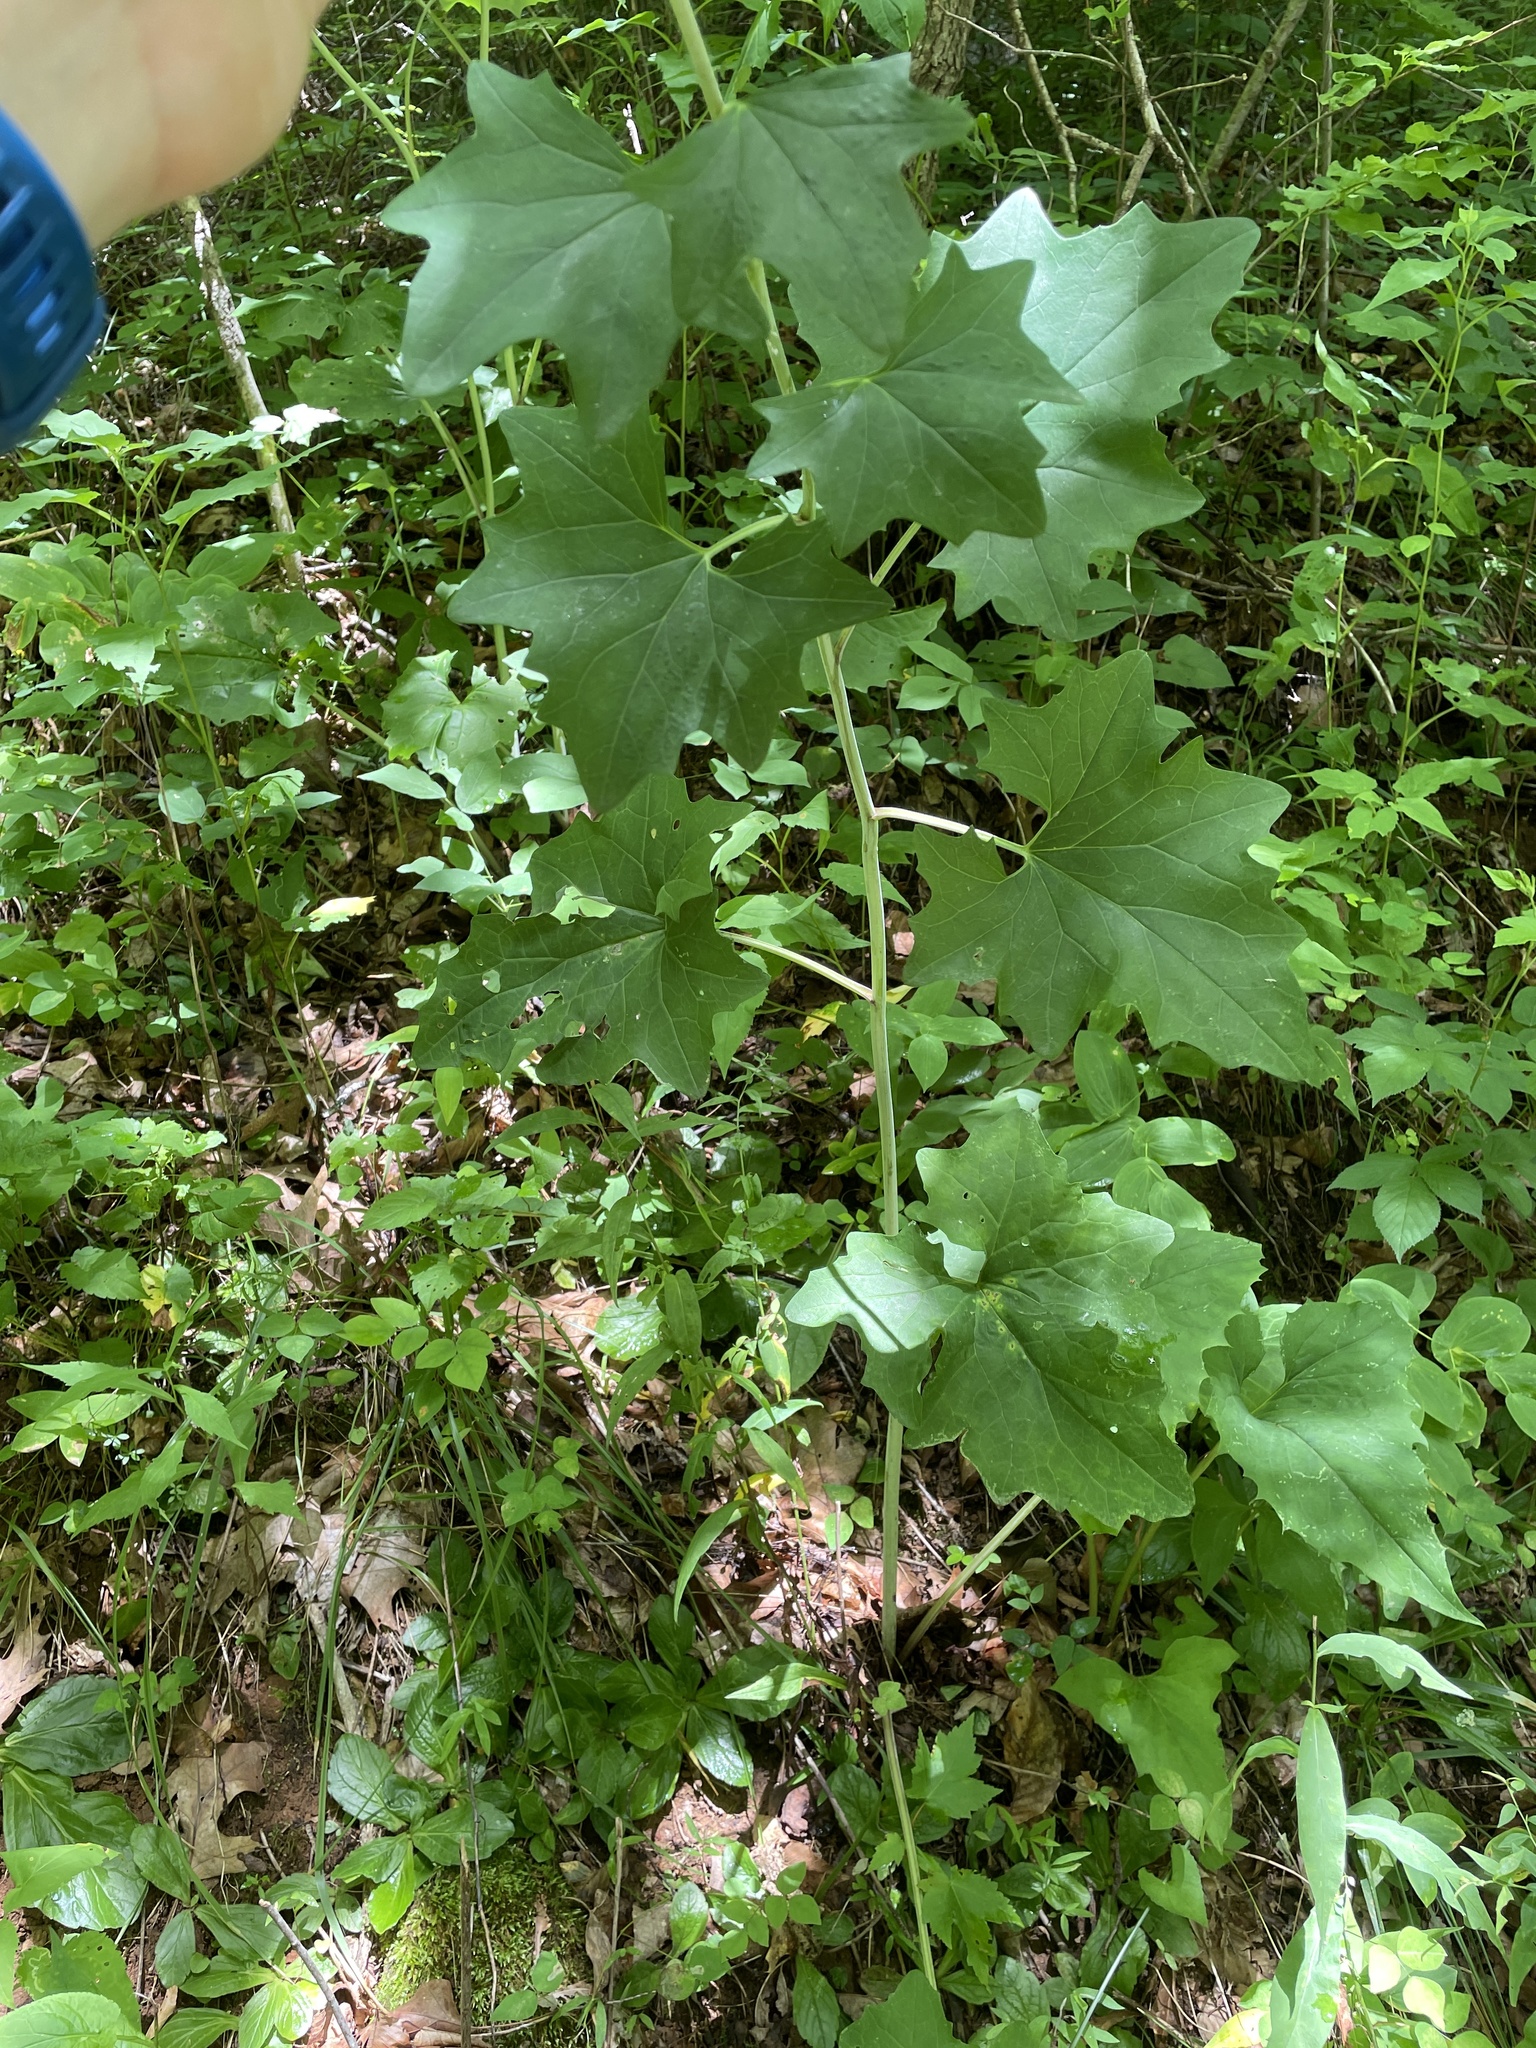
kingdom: Plantae
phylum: Tracheophyta
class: Magnoliopsida
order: Asterales
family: Asteraceae
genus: Arnoglossum
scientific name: Arnoglossum atriplicifolium
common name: Pale indian-plantain
